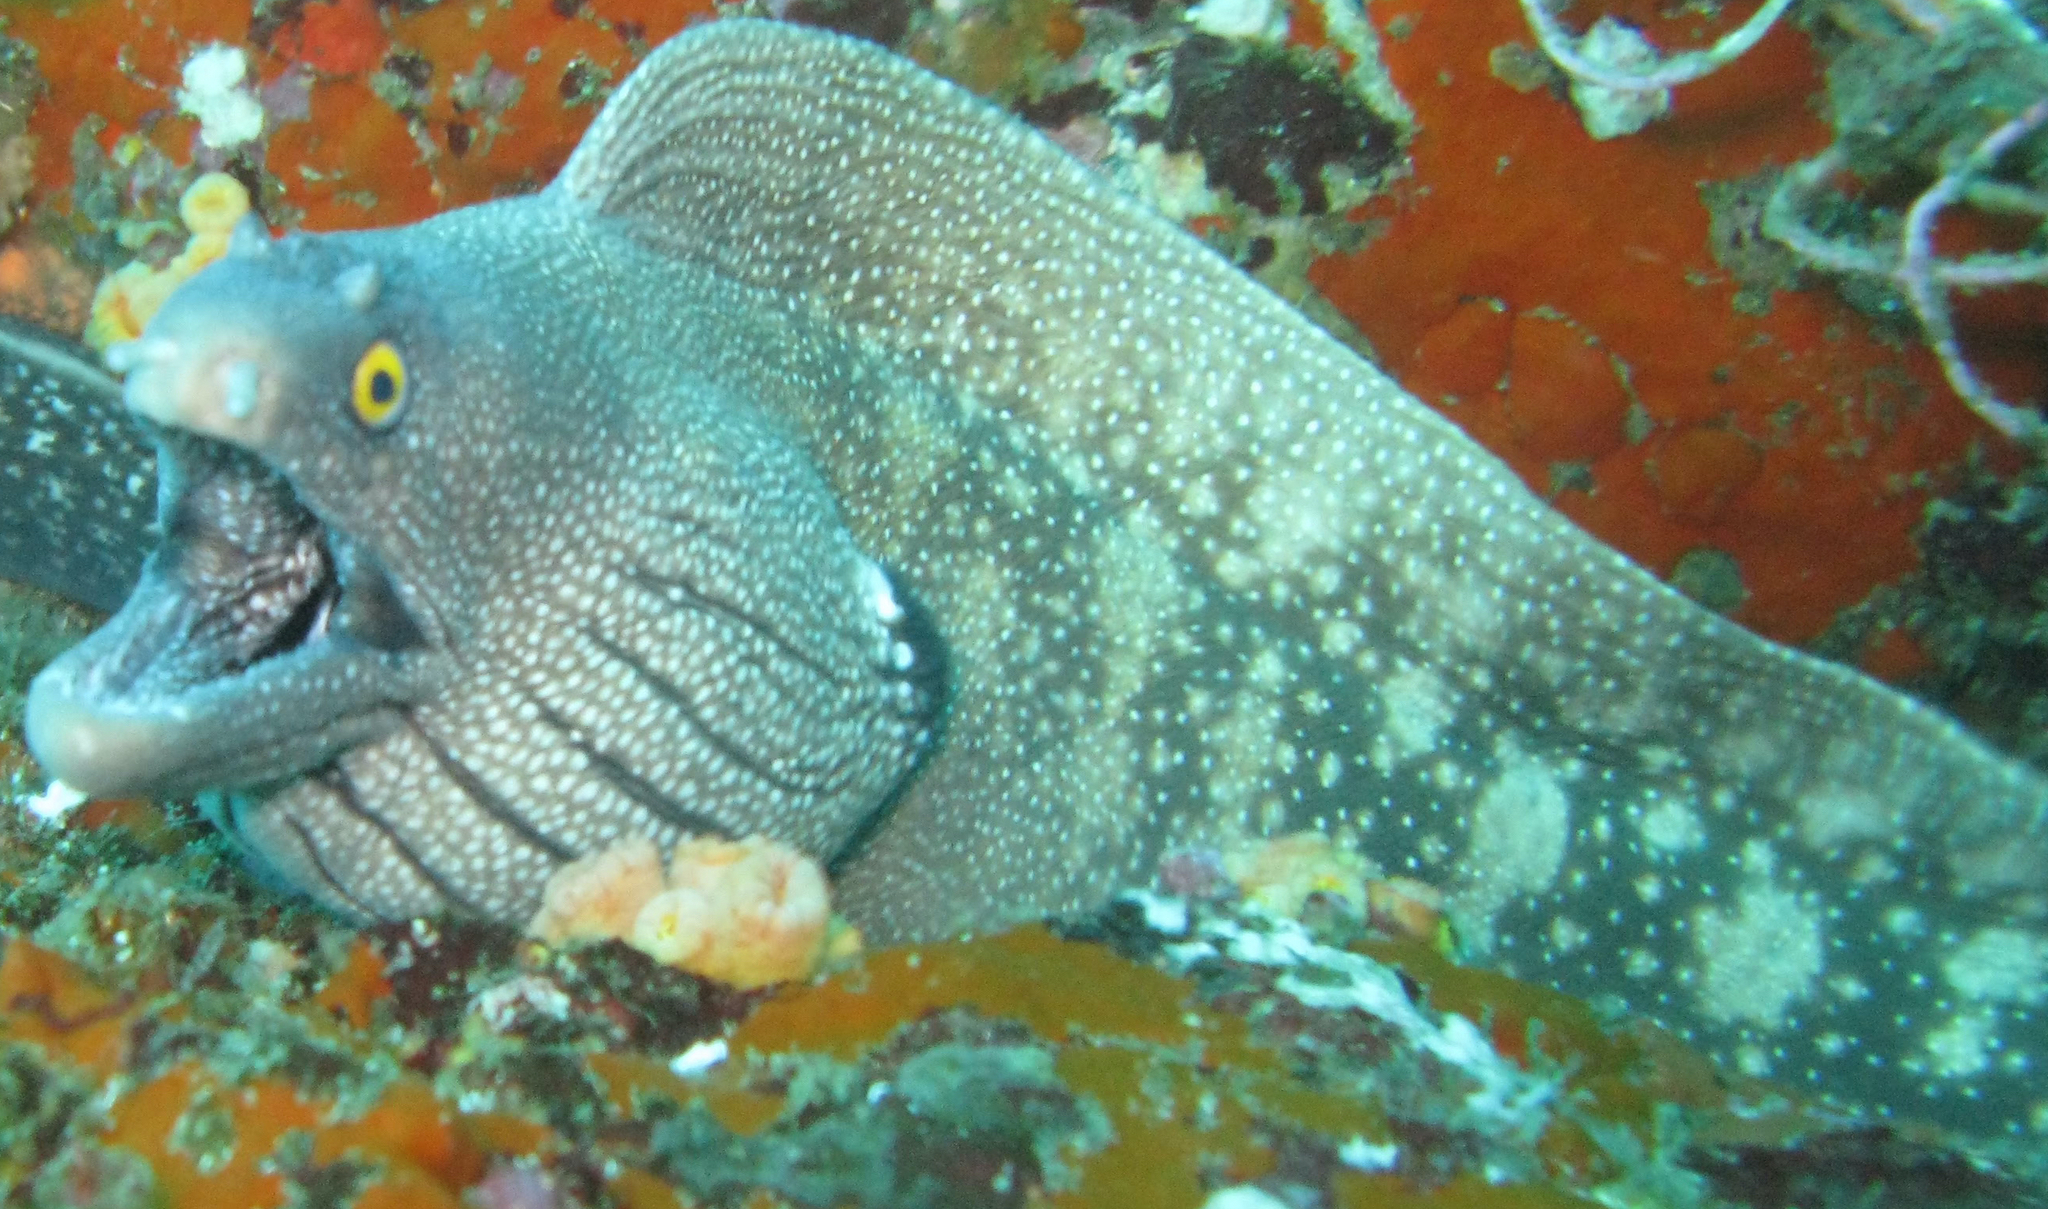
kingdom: Animalia
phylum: Chordata
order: Anguilliformes
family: Muraenidae
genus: Muraena
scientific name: Muraena argus
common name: Argus moray
